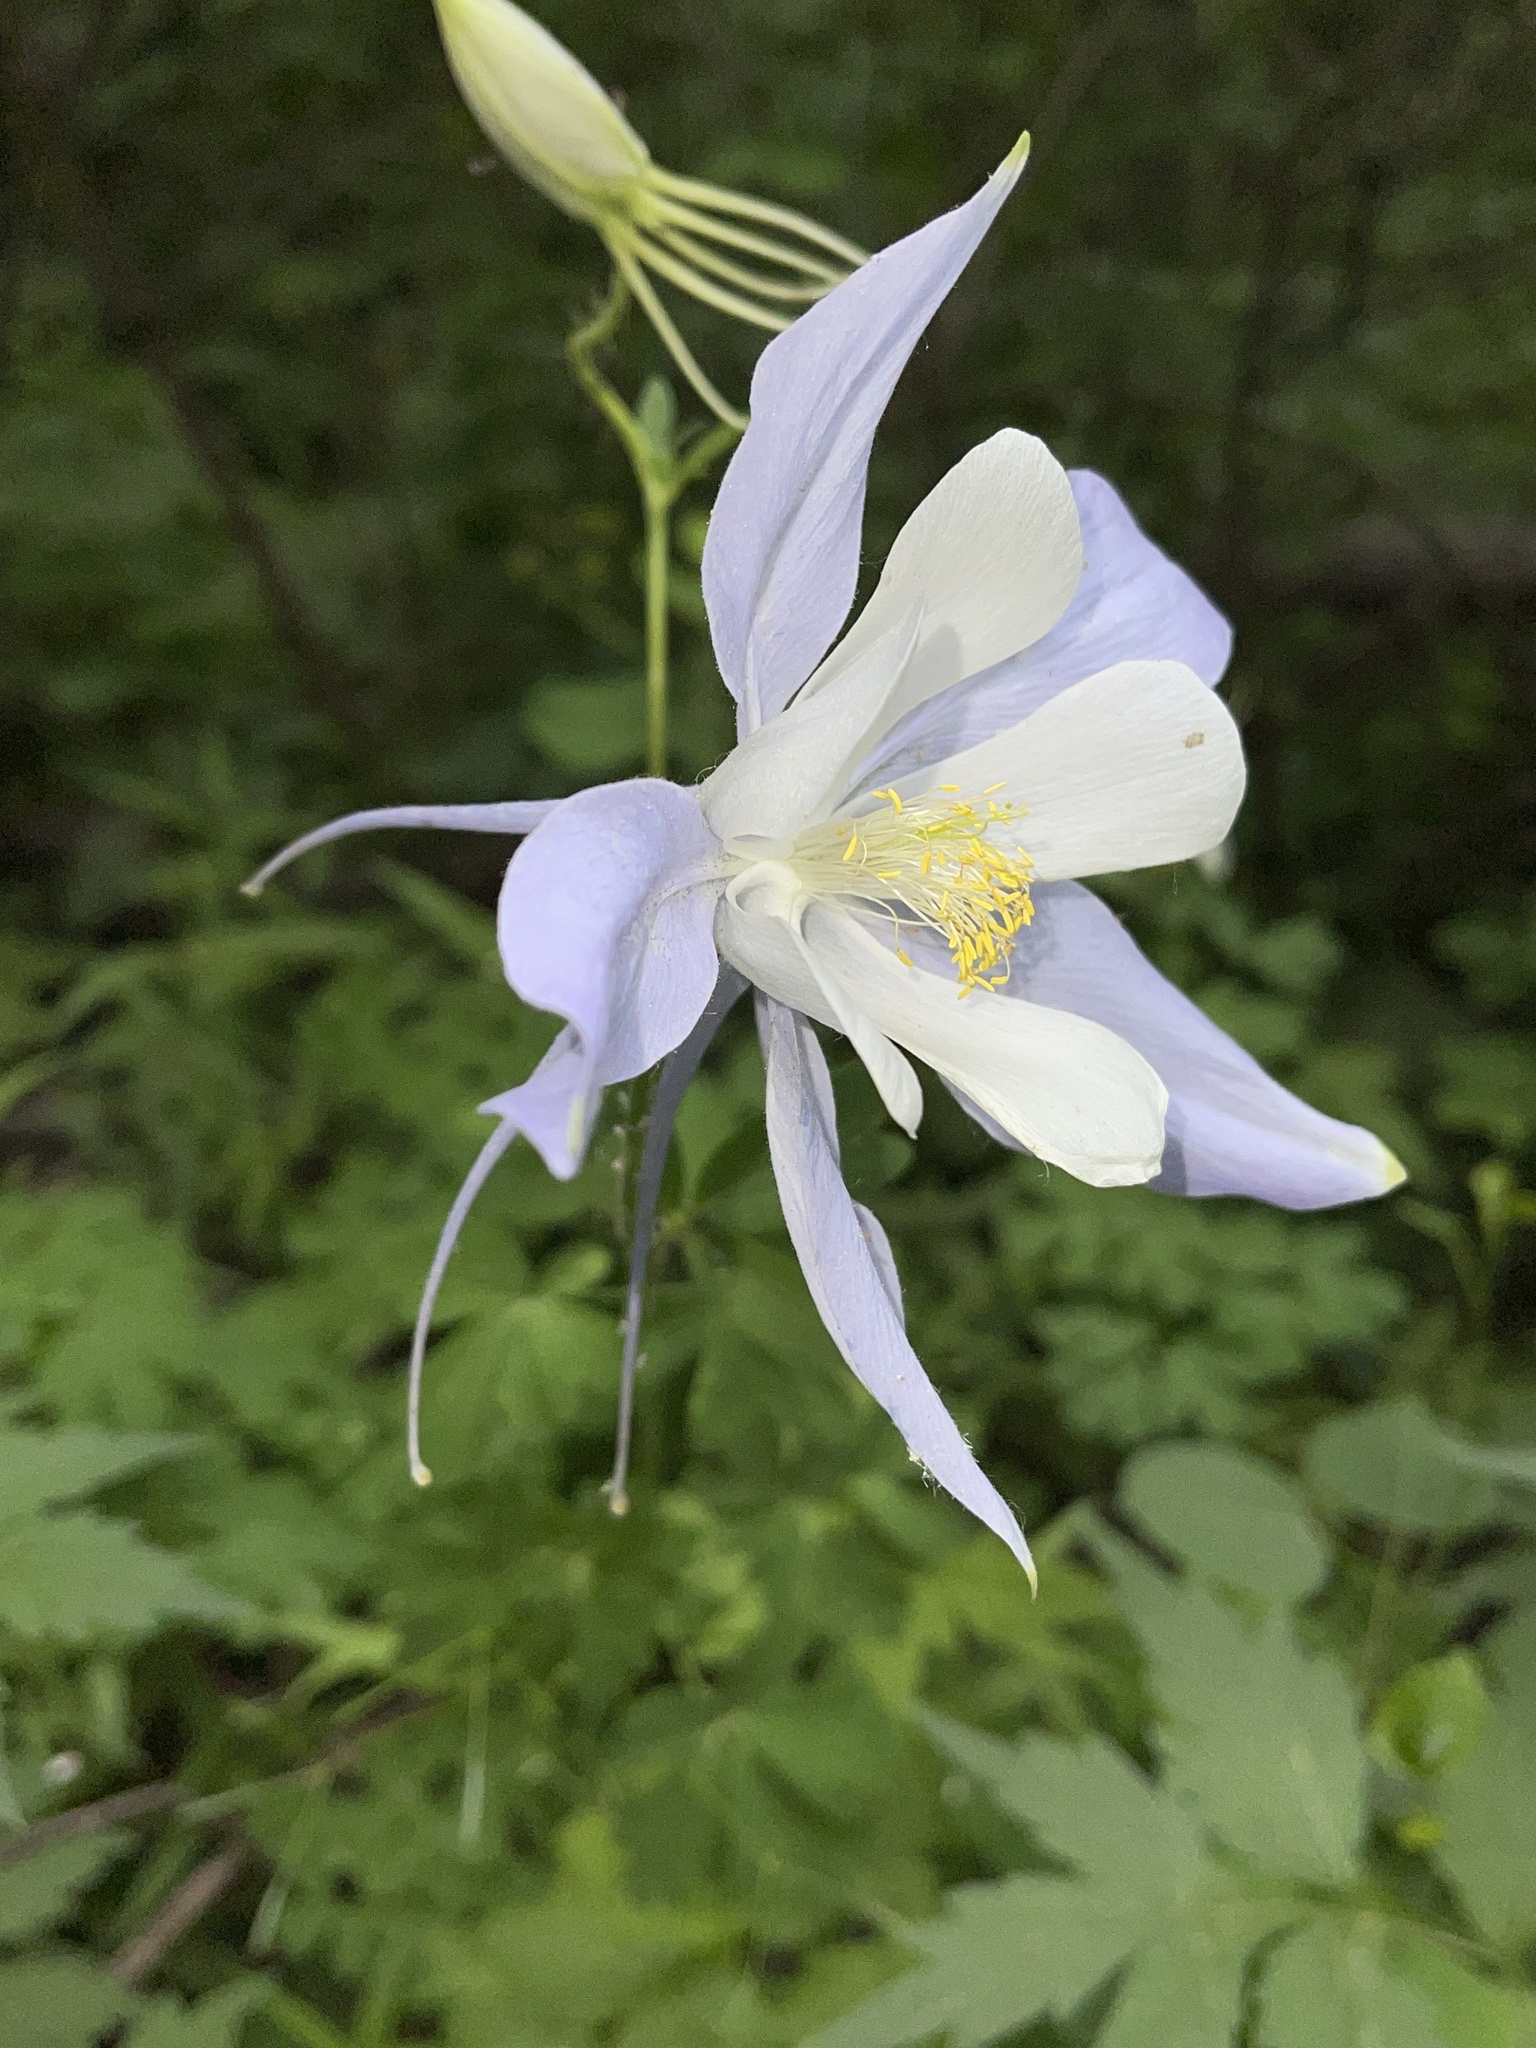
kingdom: Plantae
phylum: Tracheophyta
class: Magnoliopsida
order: Ranunculales
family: Ranunculaceae
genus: Aquilegia
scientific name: Aquilegia coerulea
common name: Rocky mountain columbine
